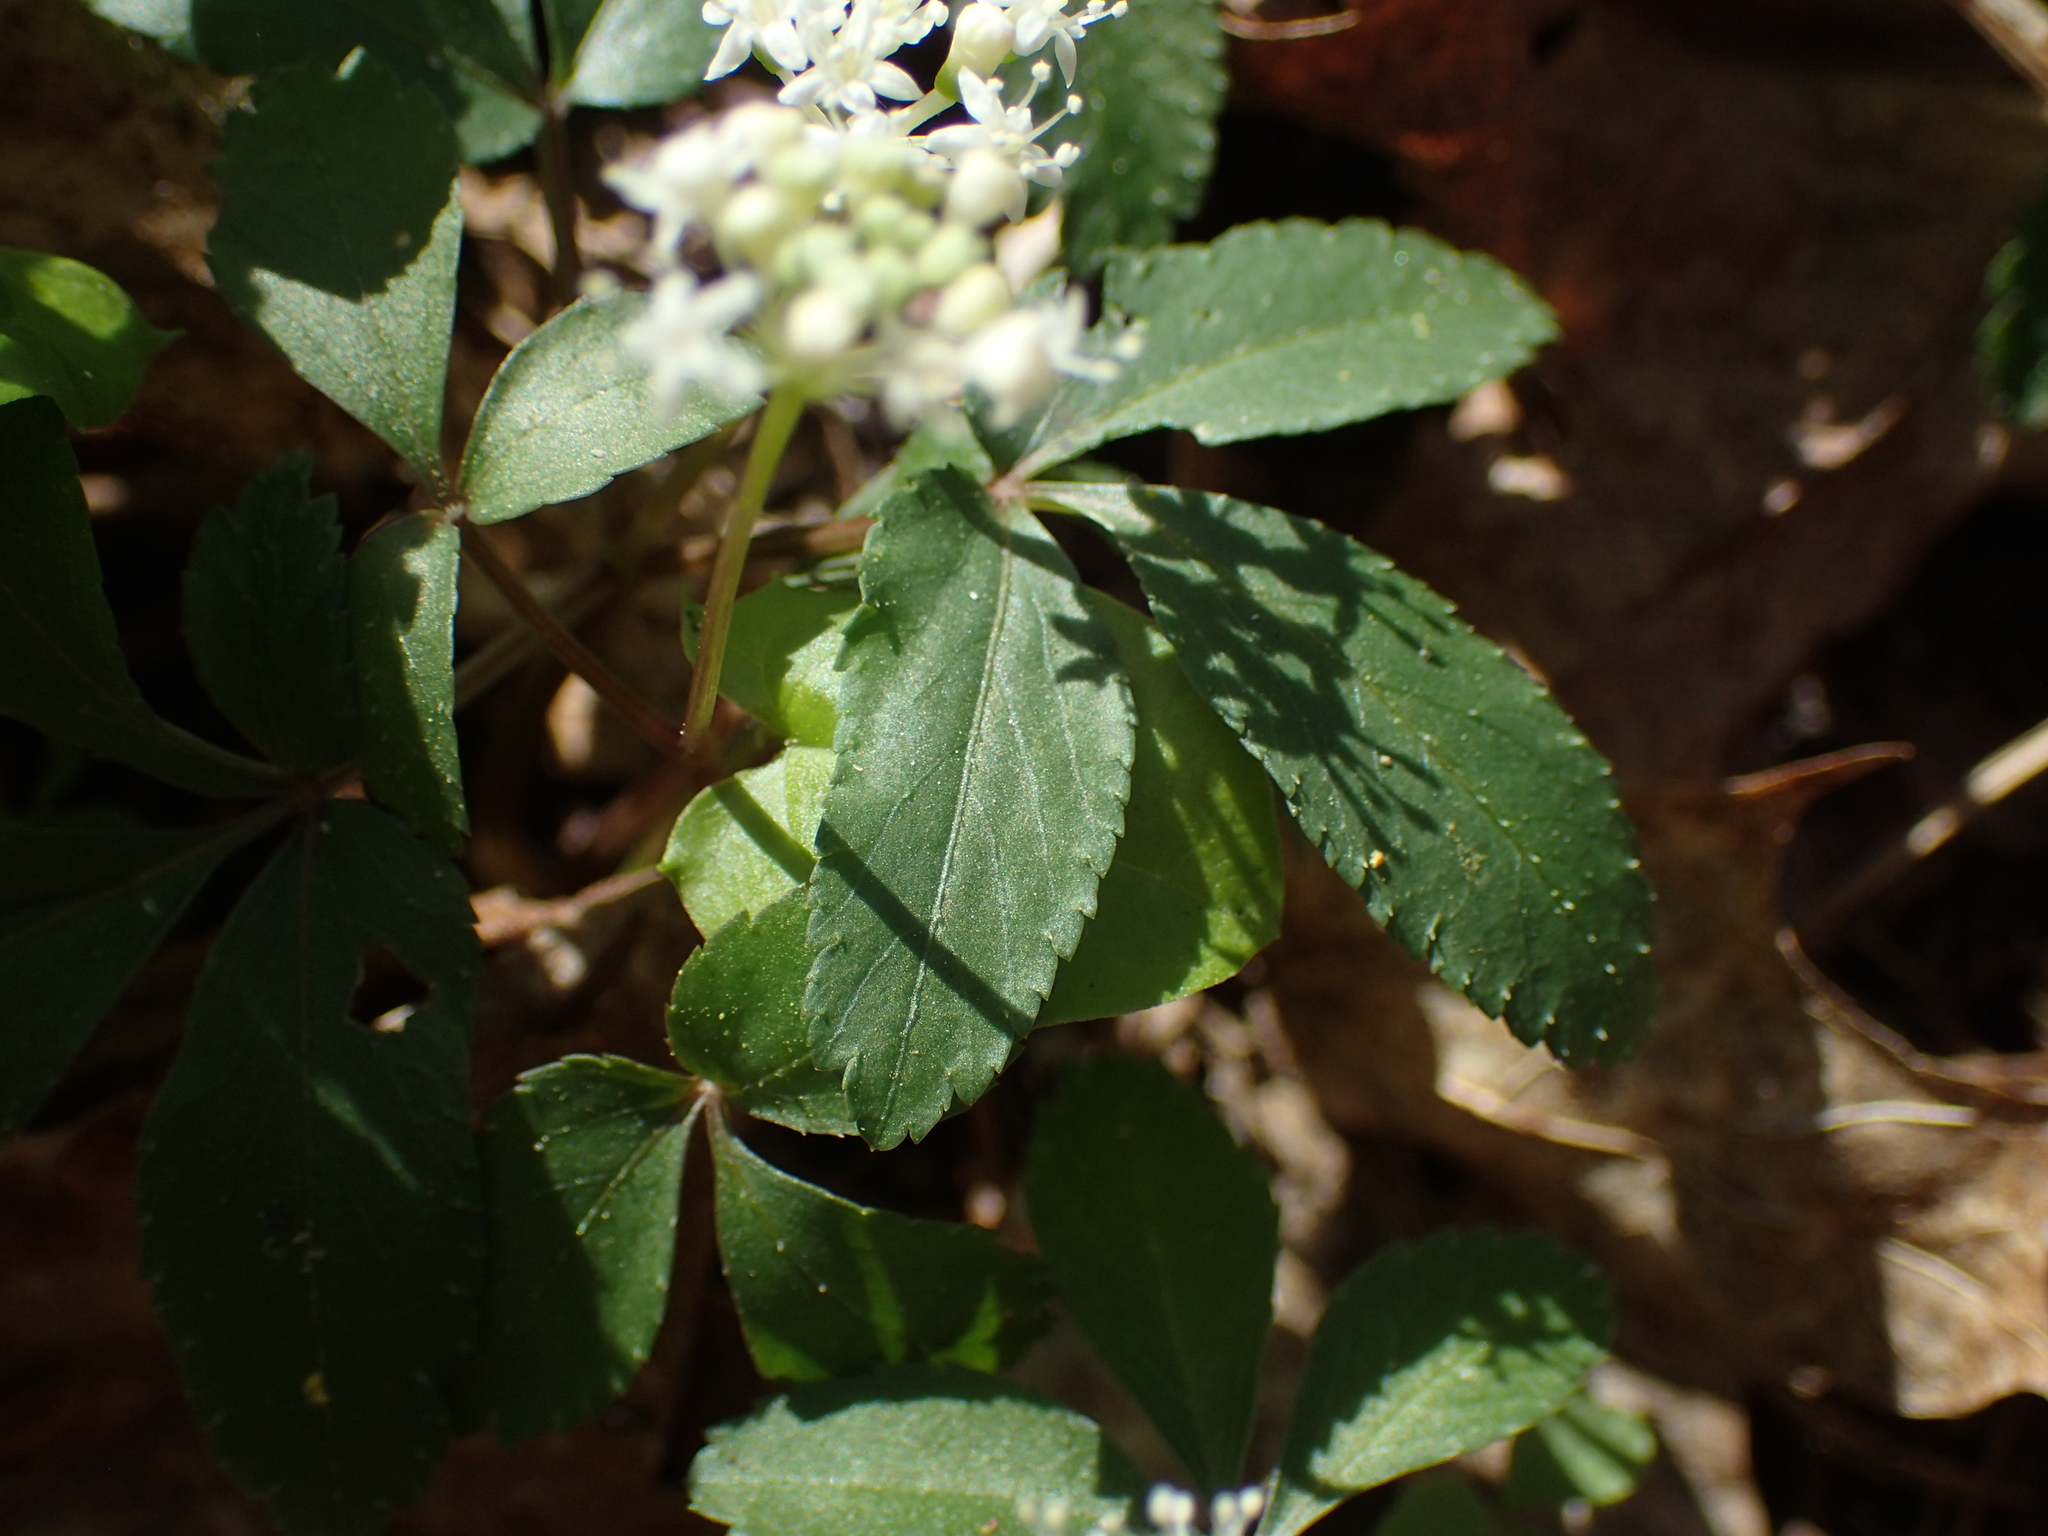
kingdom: Plantae
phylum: Tracheophyta
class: Magnoliopsida
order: Apiales
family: Araliaceae
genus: Panax
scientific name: Panax trifolius
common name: Dwarf ginseng
